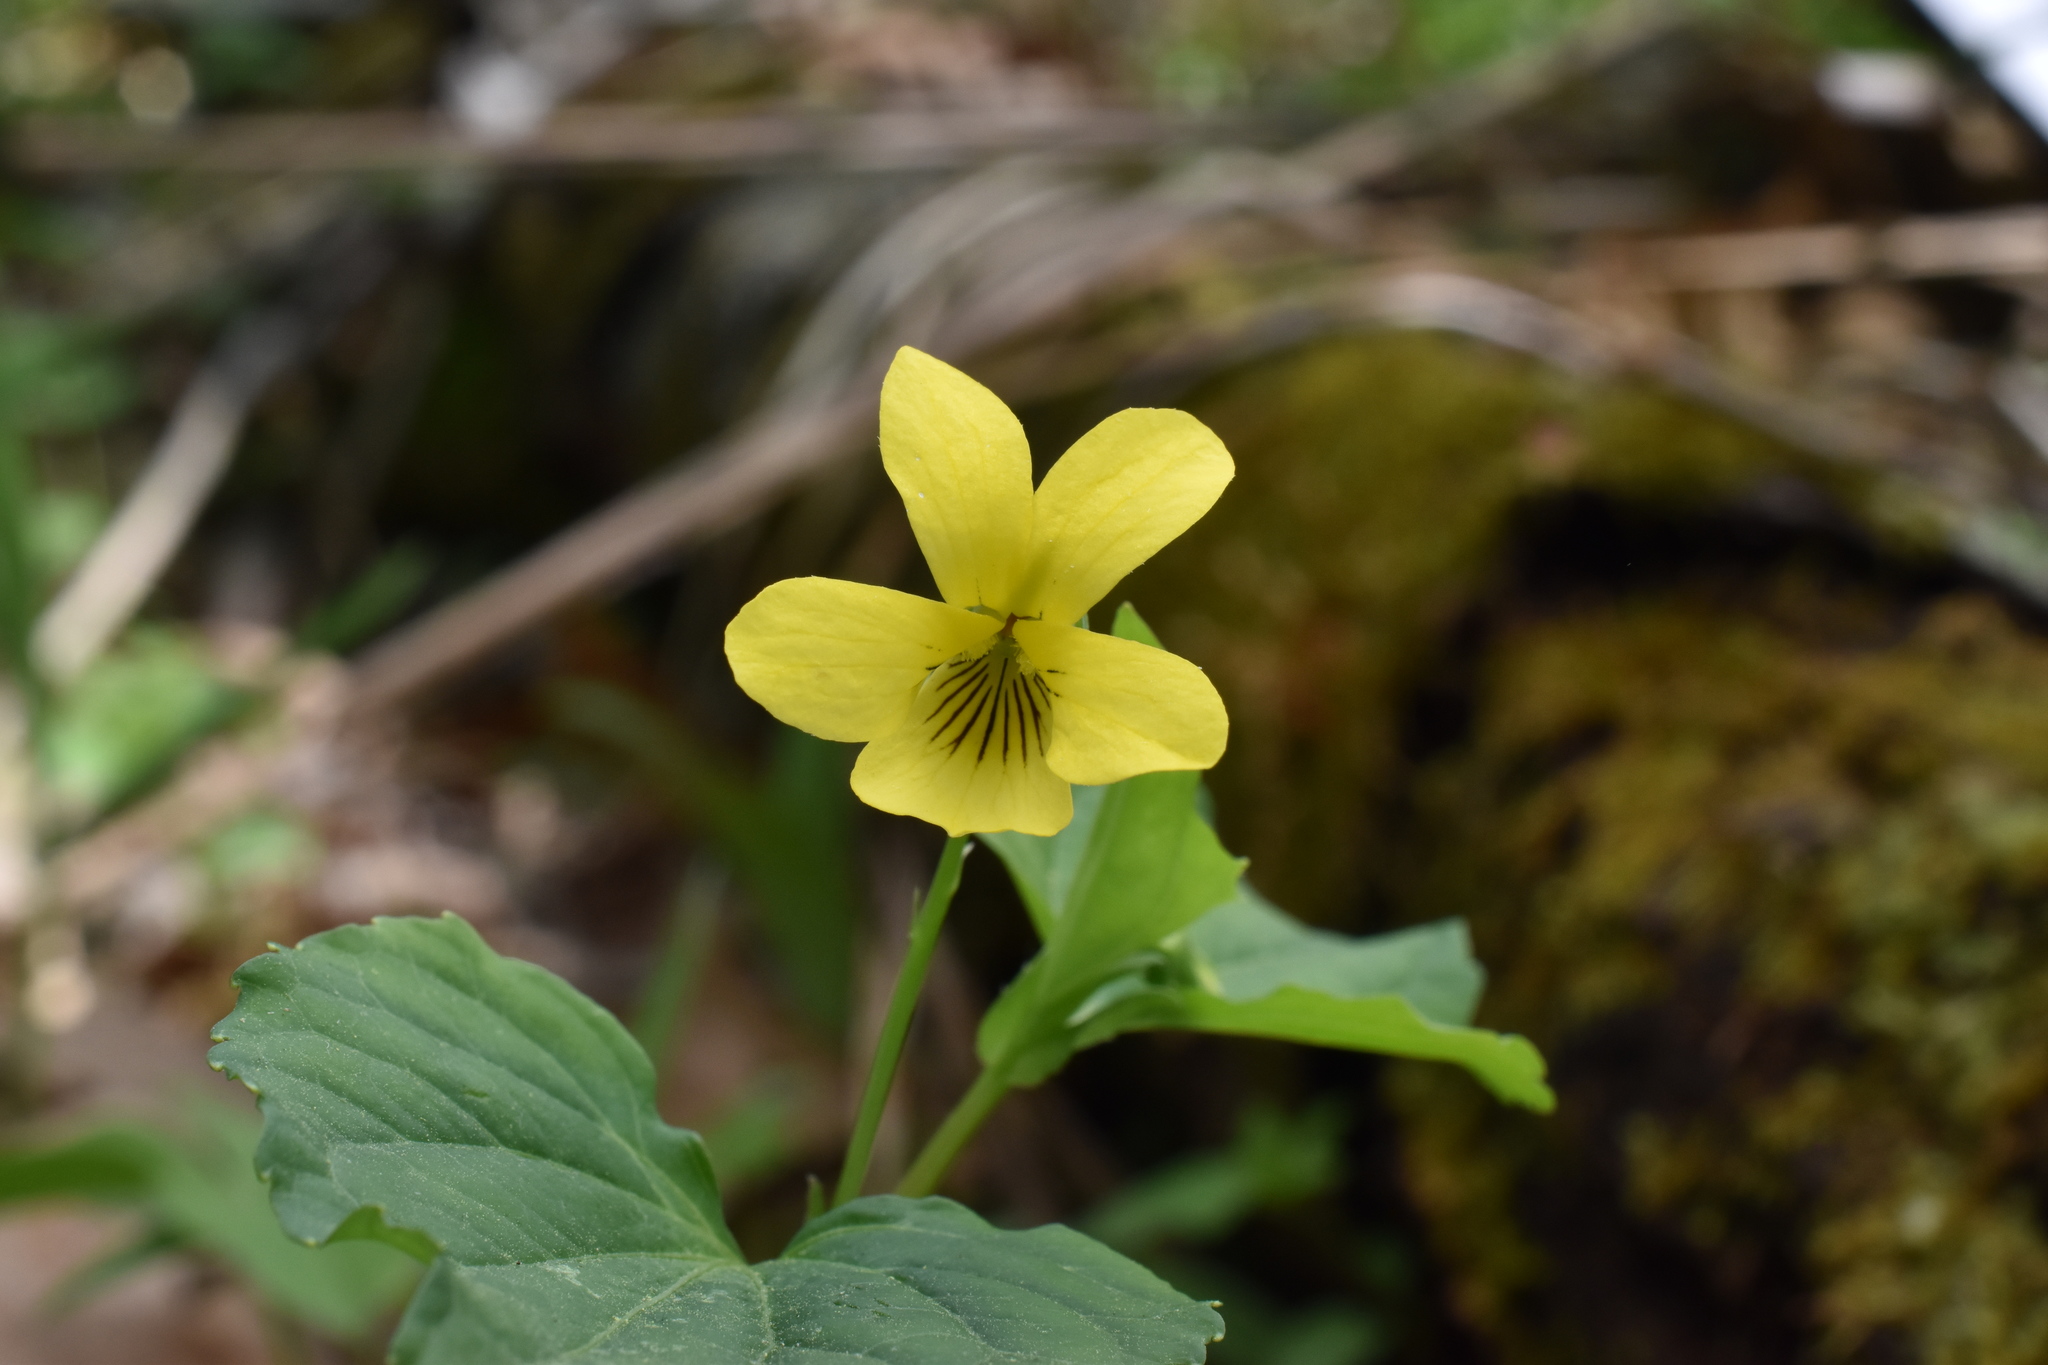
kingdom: Plantae
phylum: Tracheophyta
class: Magnoliopsida
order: Malpighiales
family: Violaceae
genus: Viola
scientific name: Viola eriocarpa
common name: Smooth yellow violet
